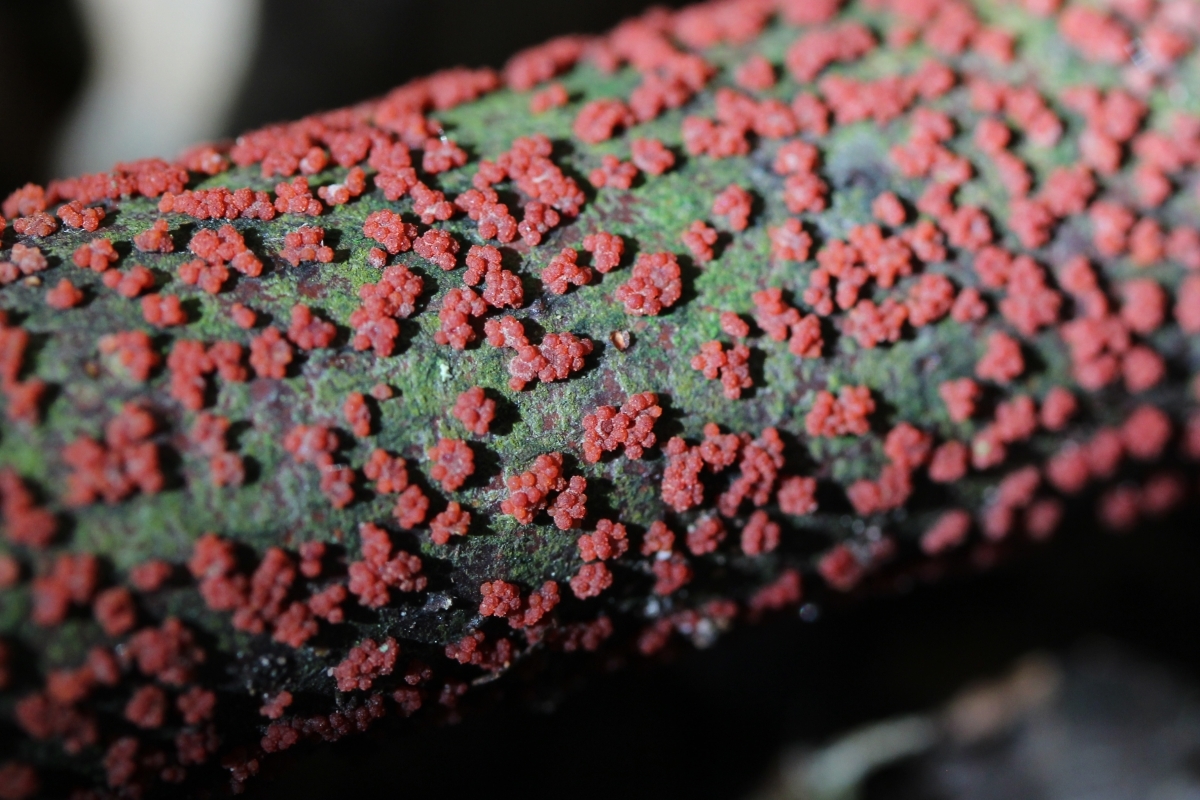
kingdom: Fungi
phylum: Ascomycota
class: Sordariomycetes
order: Hypocreales
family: Nectriaceae
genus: Nectria
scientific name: Nectria cinnabarina
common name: Coral spot
